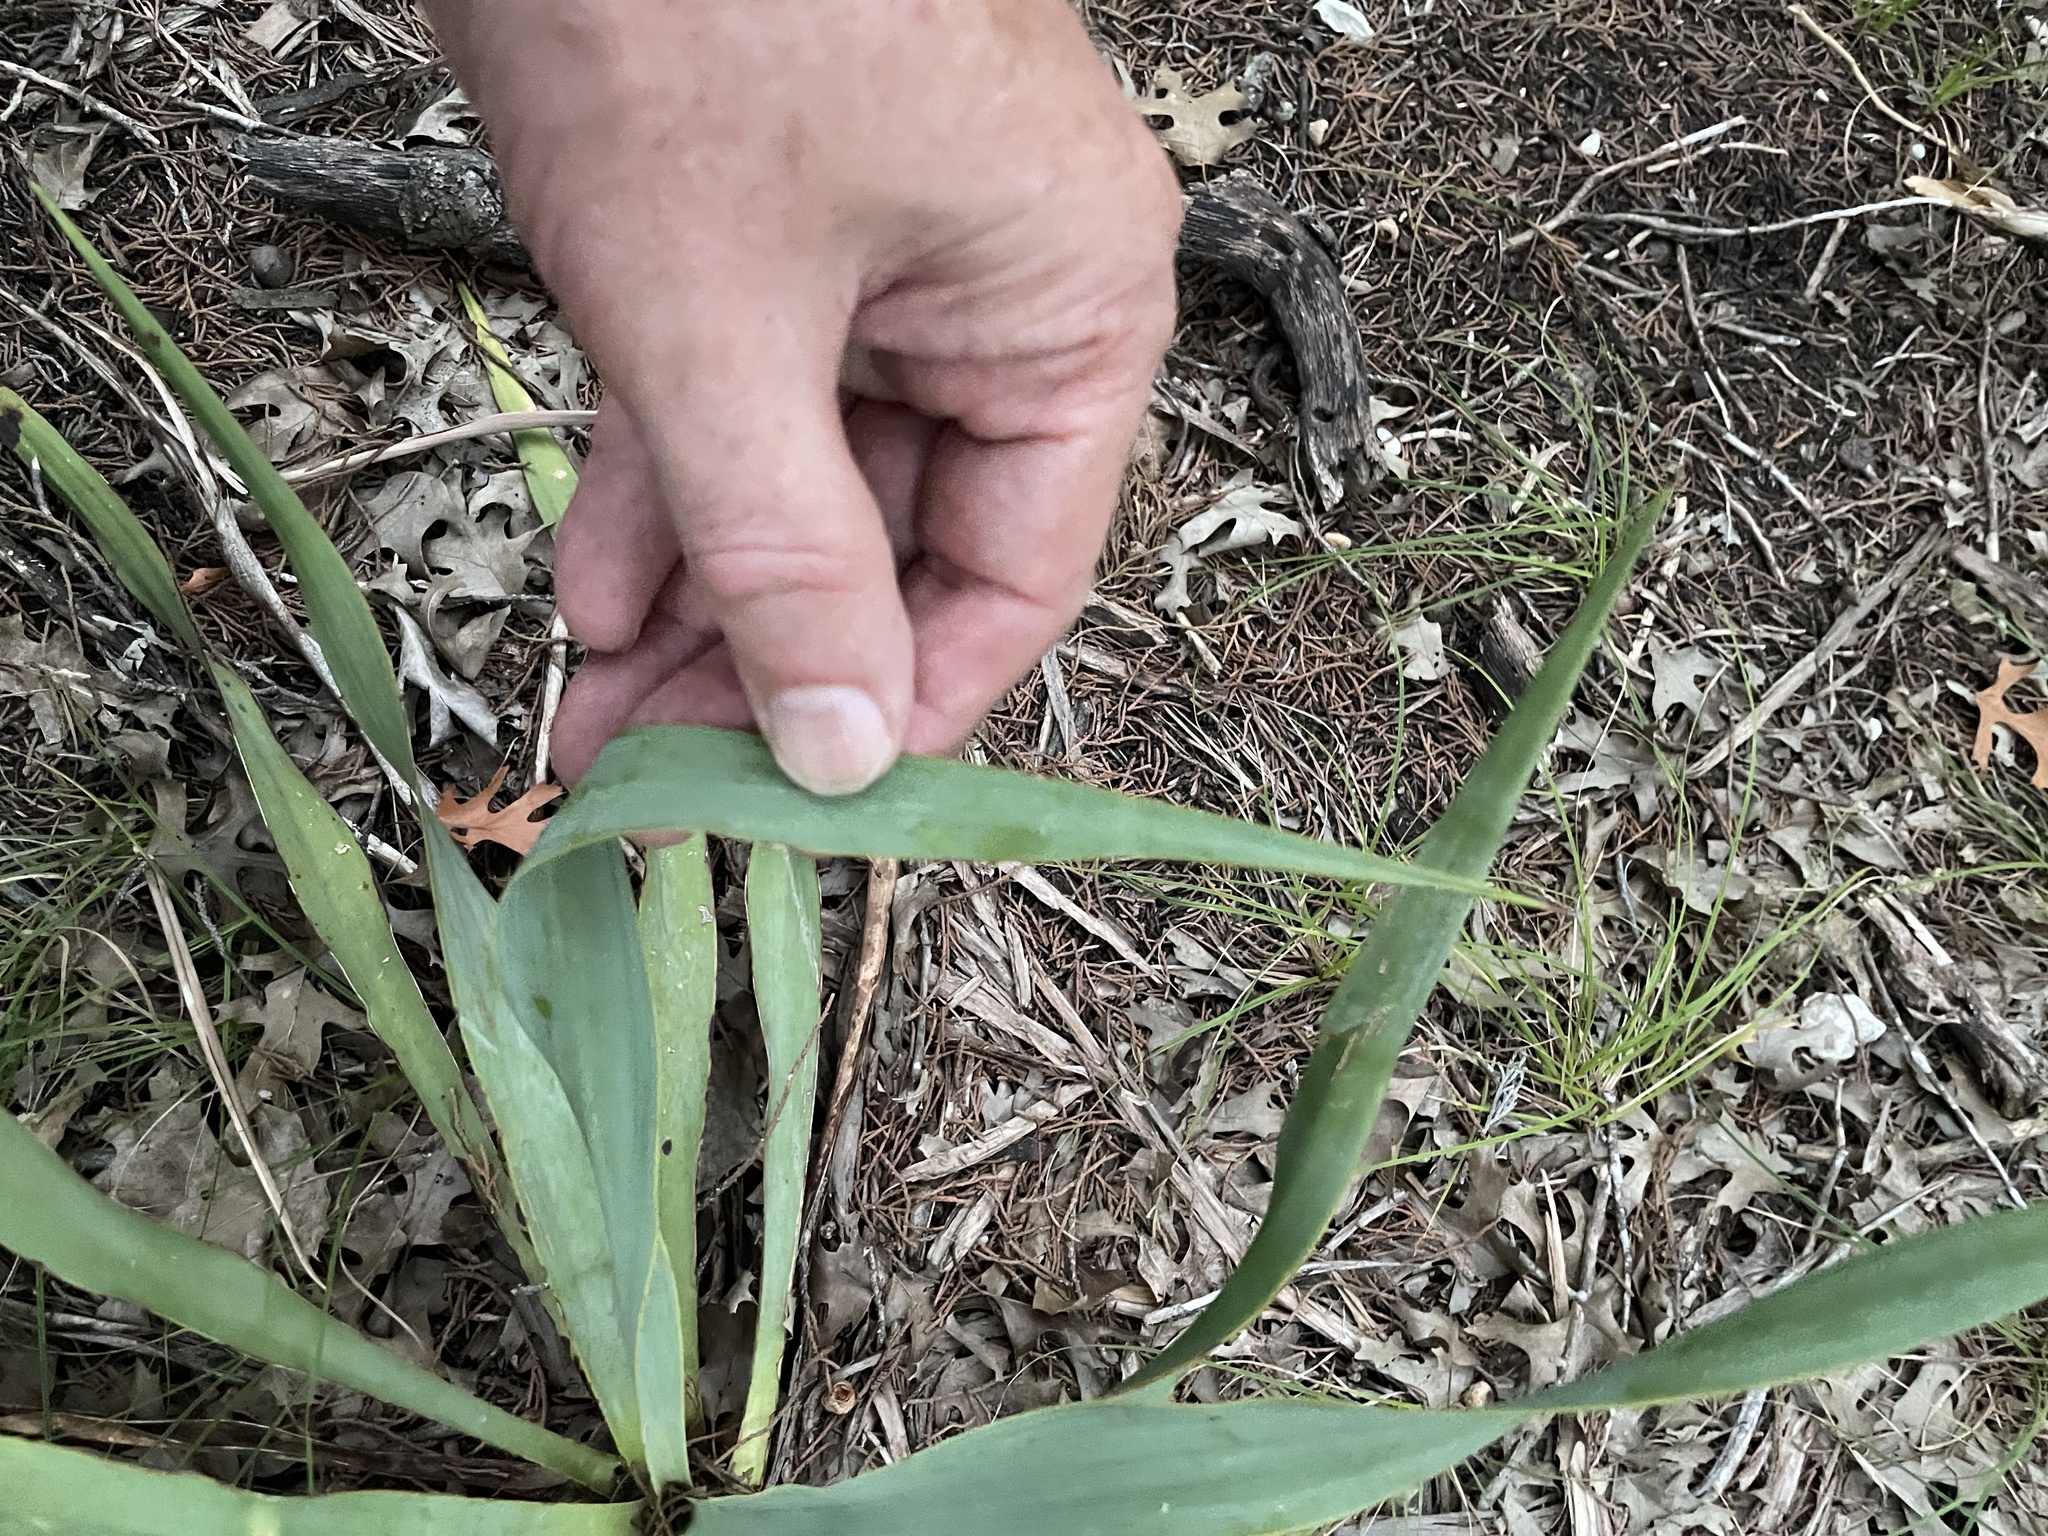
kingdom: Plantae
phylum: Tracheophyta
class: Liliopsida
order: Asparagales
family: Asparagaceae
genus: Yucca
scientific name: Yucca rupicola
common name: Twisted-leaf spanish-dagger
